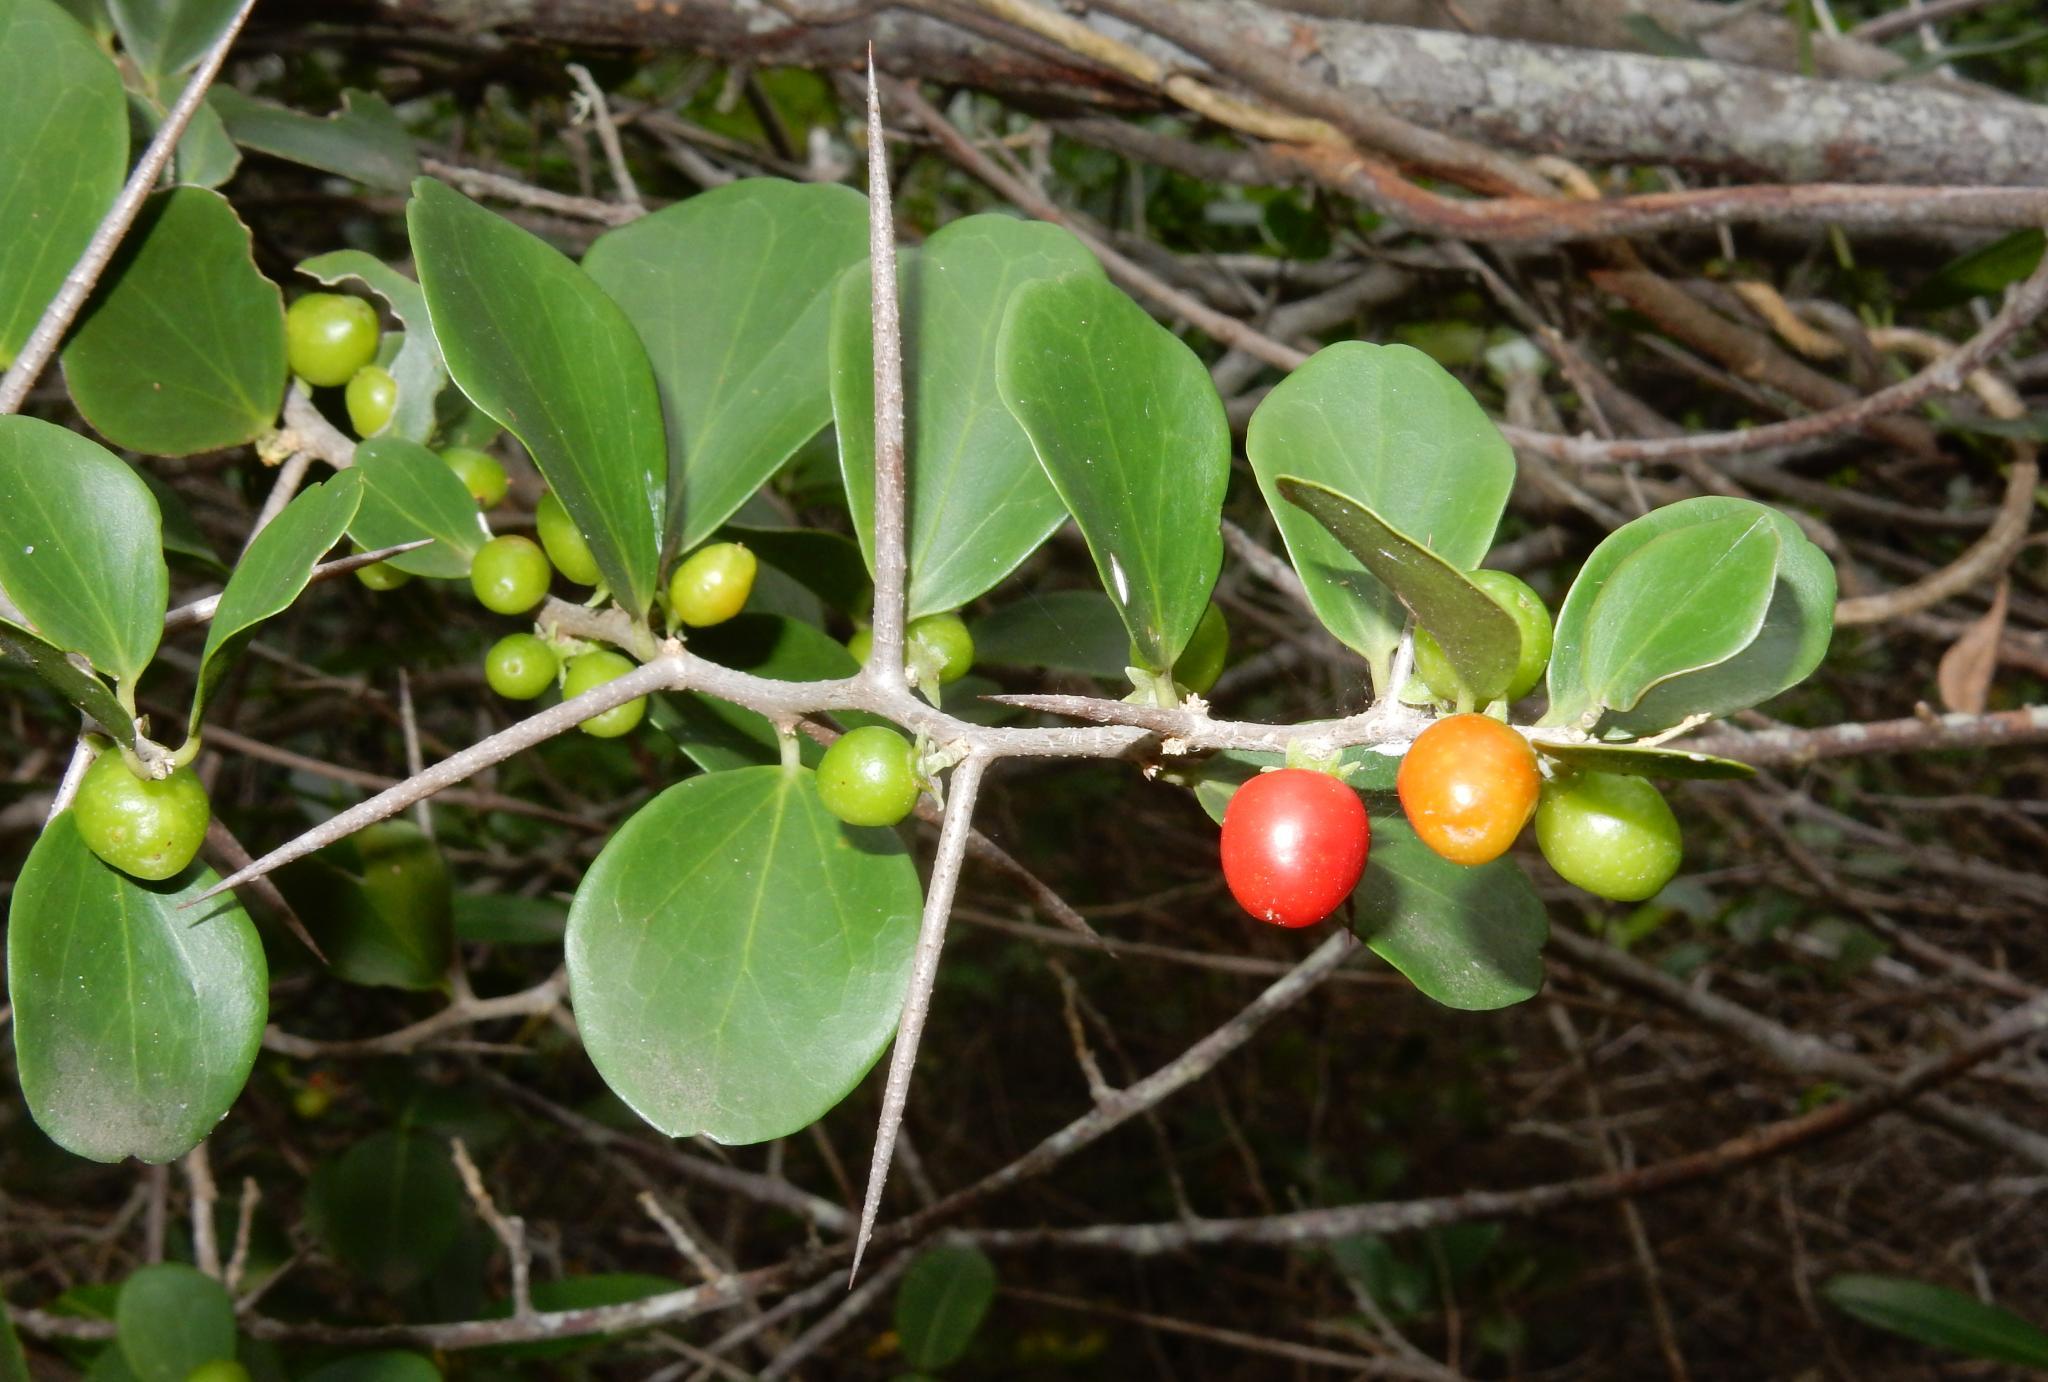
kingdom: Plantae
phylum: Tracheophyta
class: Magnoliopsida
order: Malpighiales
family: Salicaceae
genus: Dovyalis
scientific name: Dovyalis rotundifolia
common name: Dune sourberry
